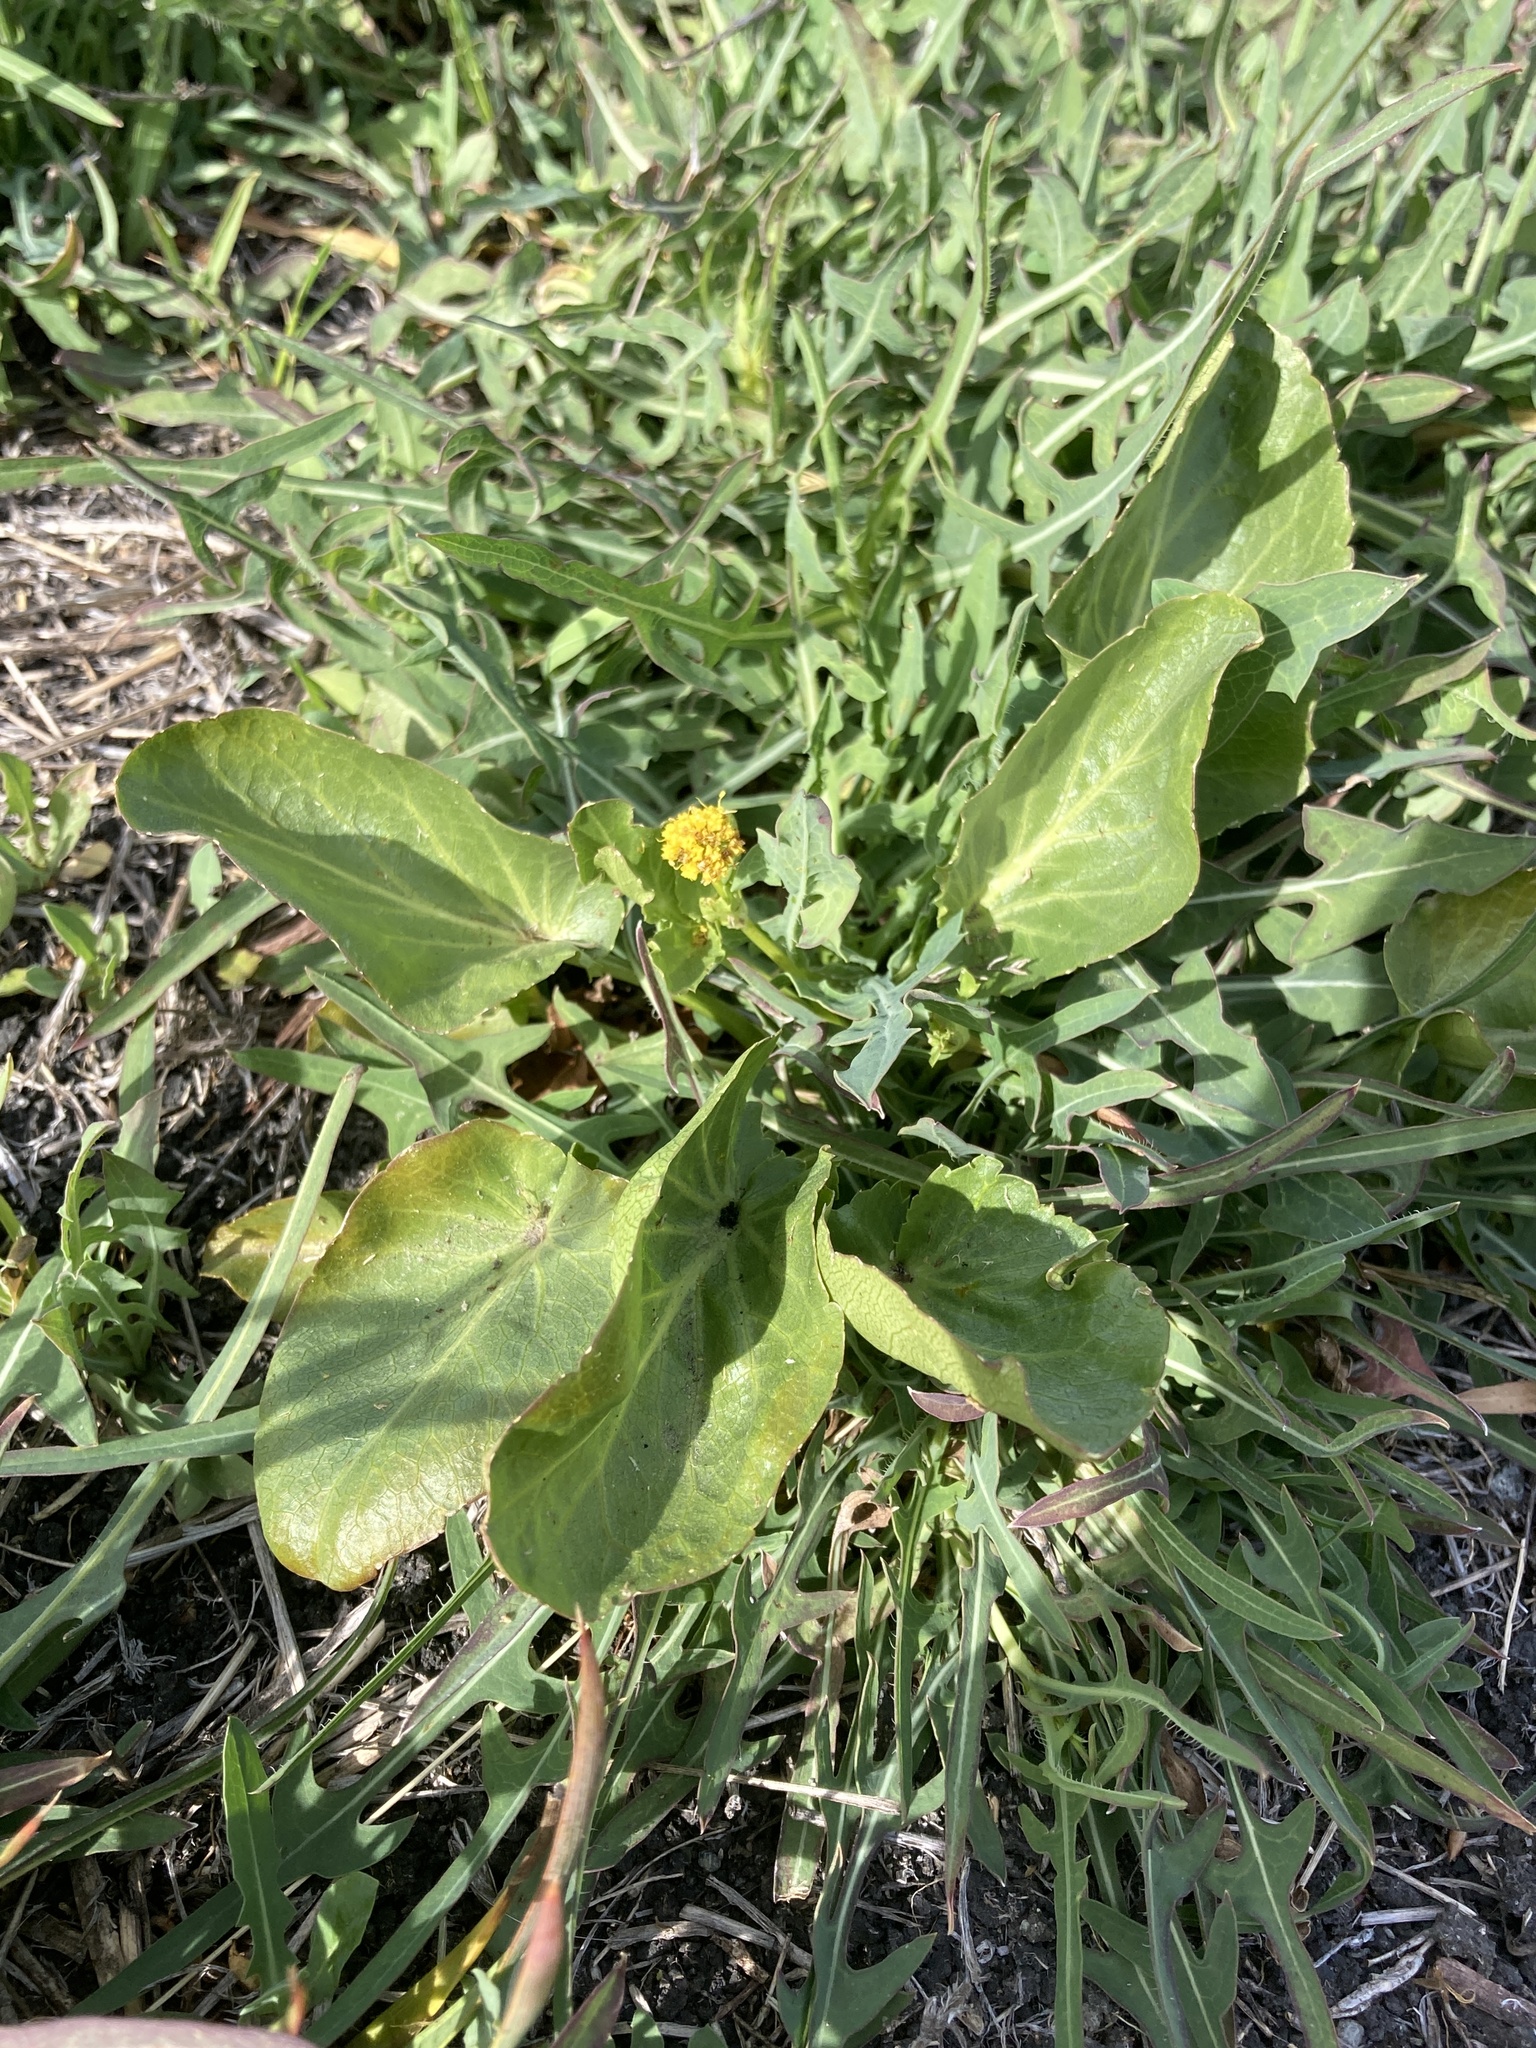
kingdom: Plantae
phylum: Tracheophyta
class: Magnoliopsida
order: Apiales
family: Apiaceae
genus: Sanicula
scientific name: Sanicula maritima
